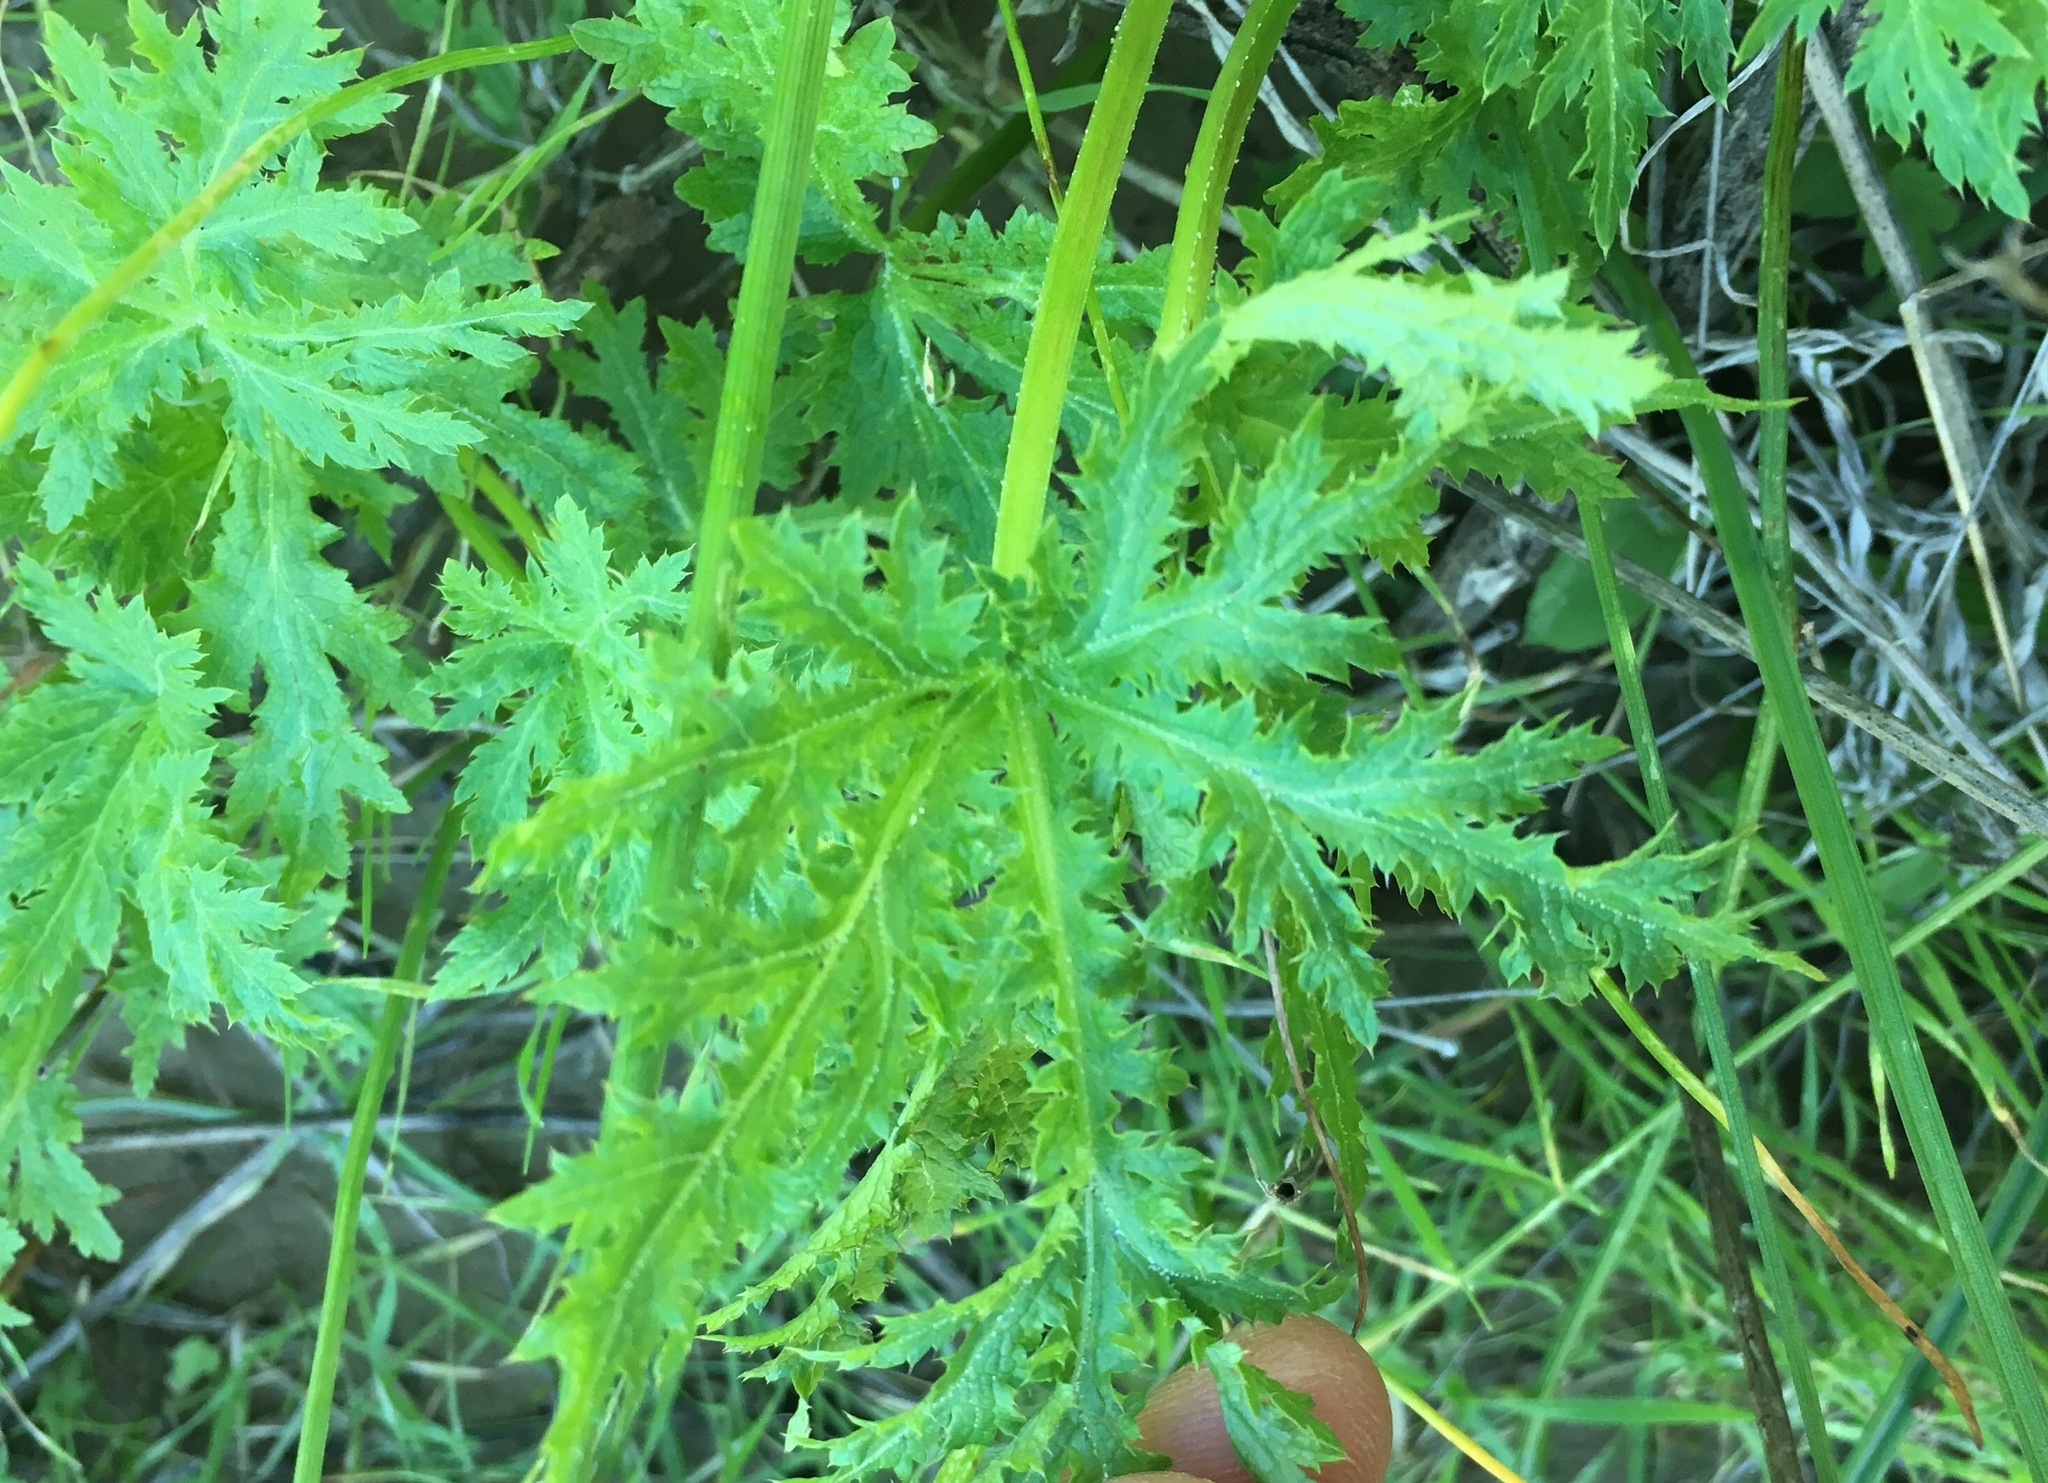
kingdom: Plantae
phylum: Tracheophyta
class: Magnoliopsida
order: Apiales
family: Apiaceae
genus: Sanicula
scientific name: Sanicula arguta
